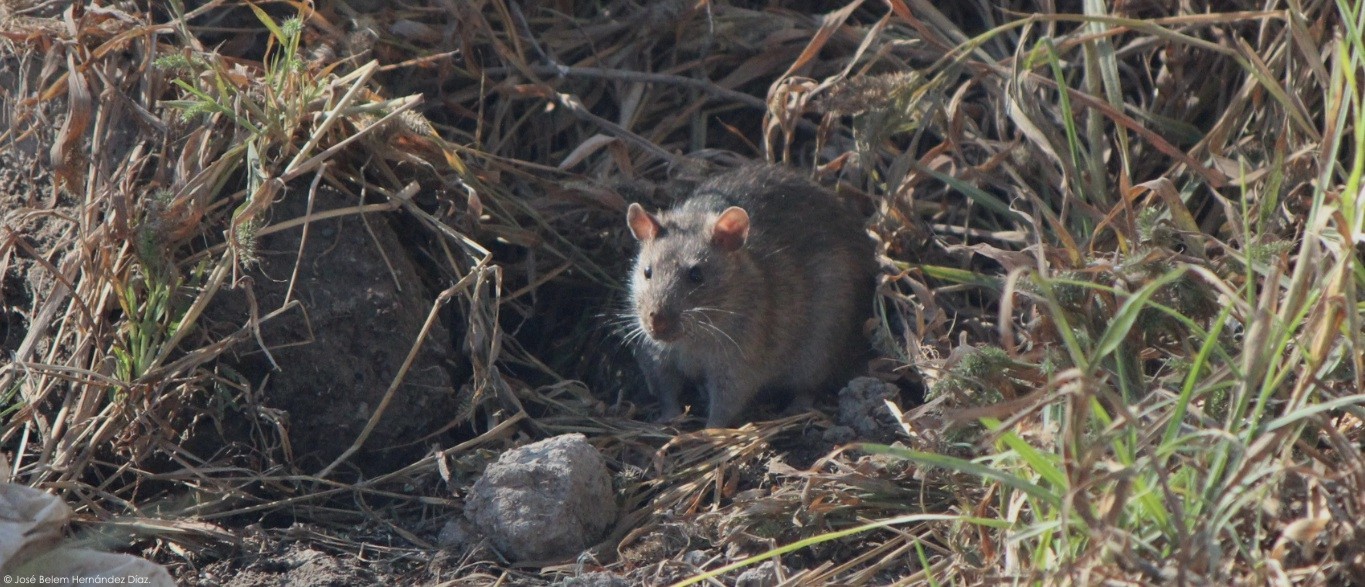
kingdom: Animalia
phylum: Chordata
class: Mammalia
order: Rodentia
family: Muridae
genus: Rattus
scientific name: Rattus norvegicus
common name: Brown rat
